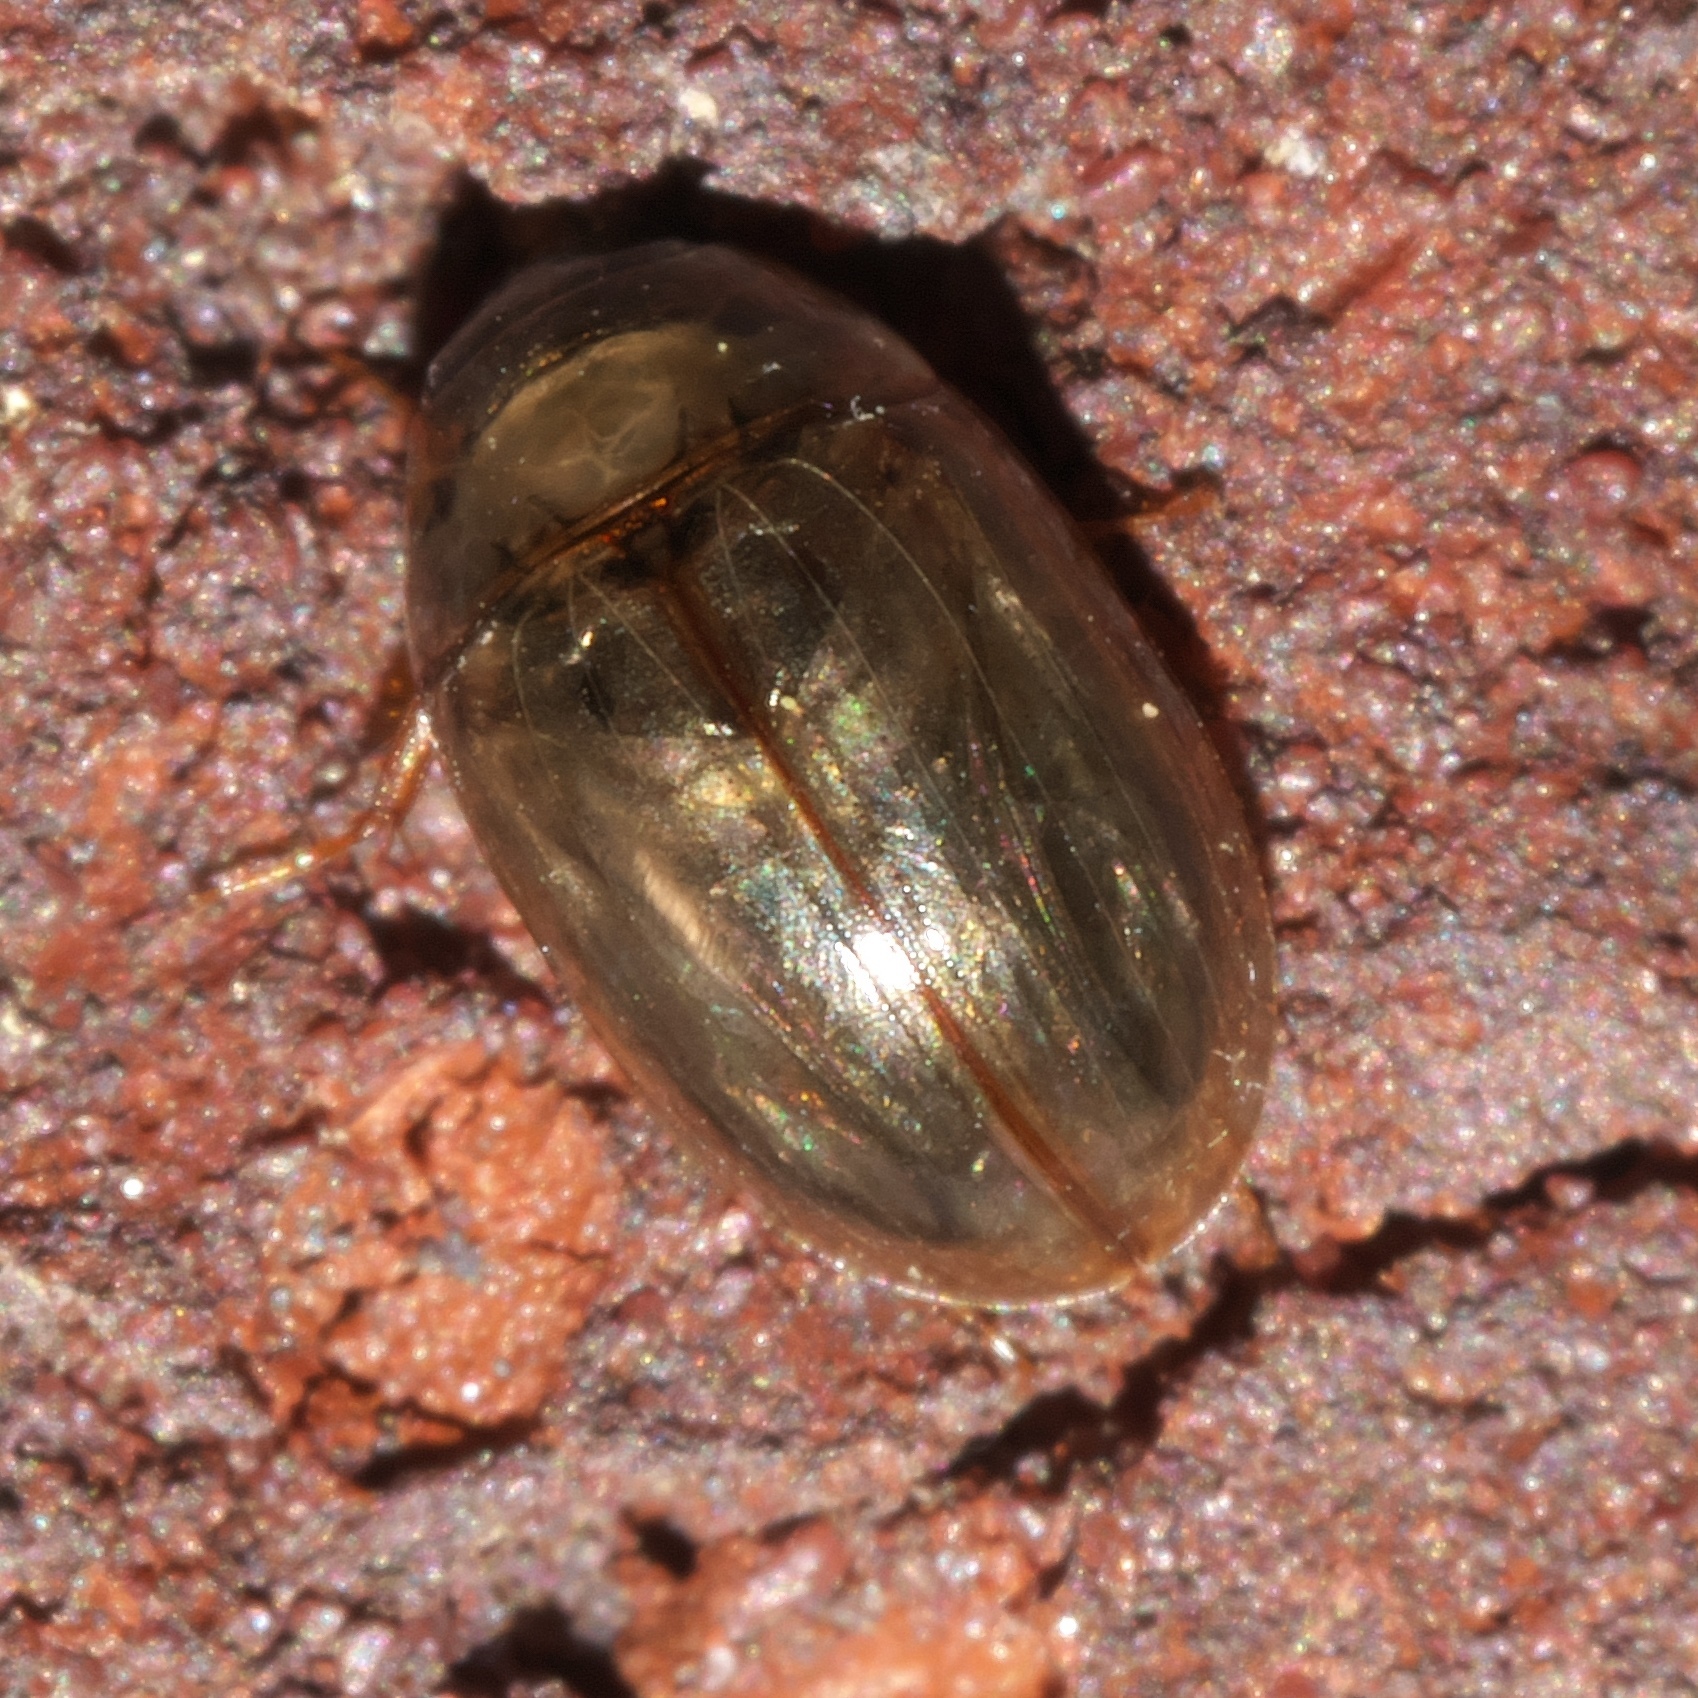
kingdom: Animalia
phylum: Arthropoda
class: Insecta
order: Coleoptera
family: Hydrophilidae
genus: Enochrus
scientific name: Enochrus
